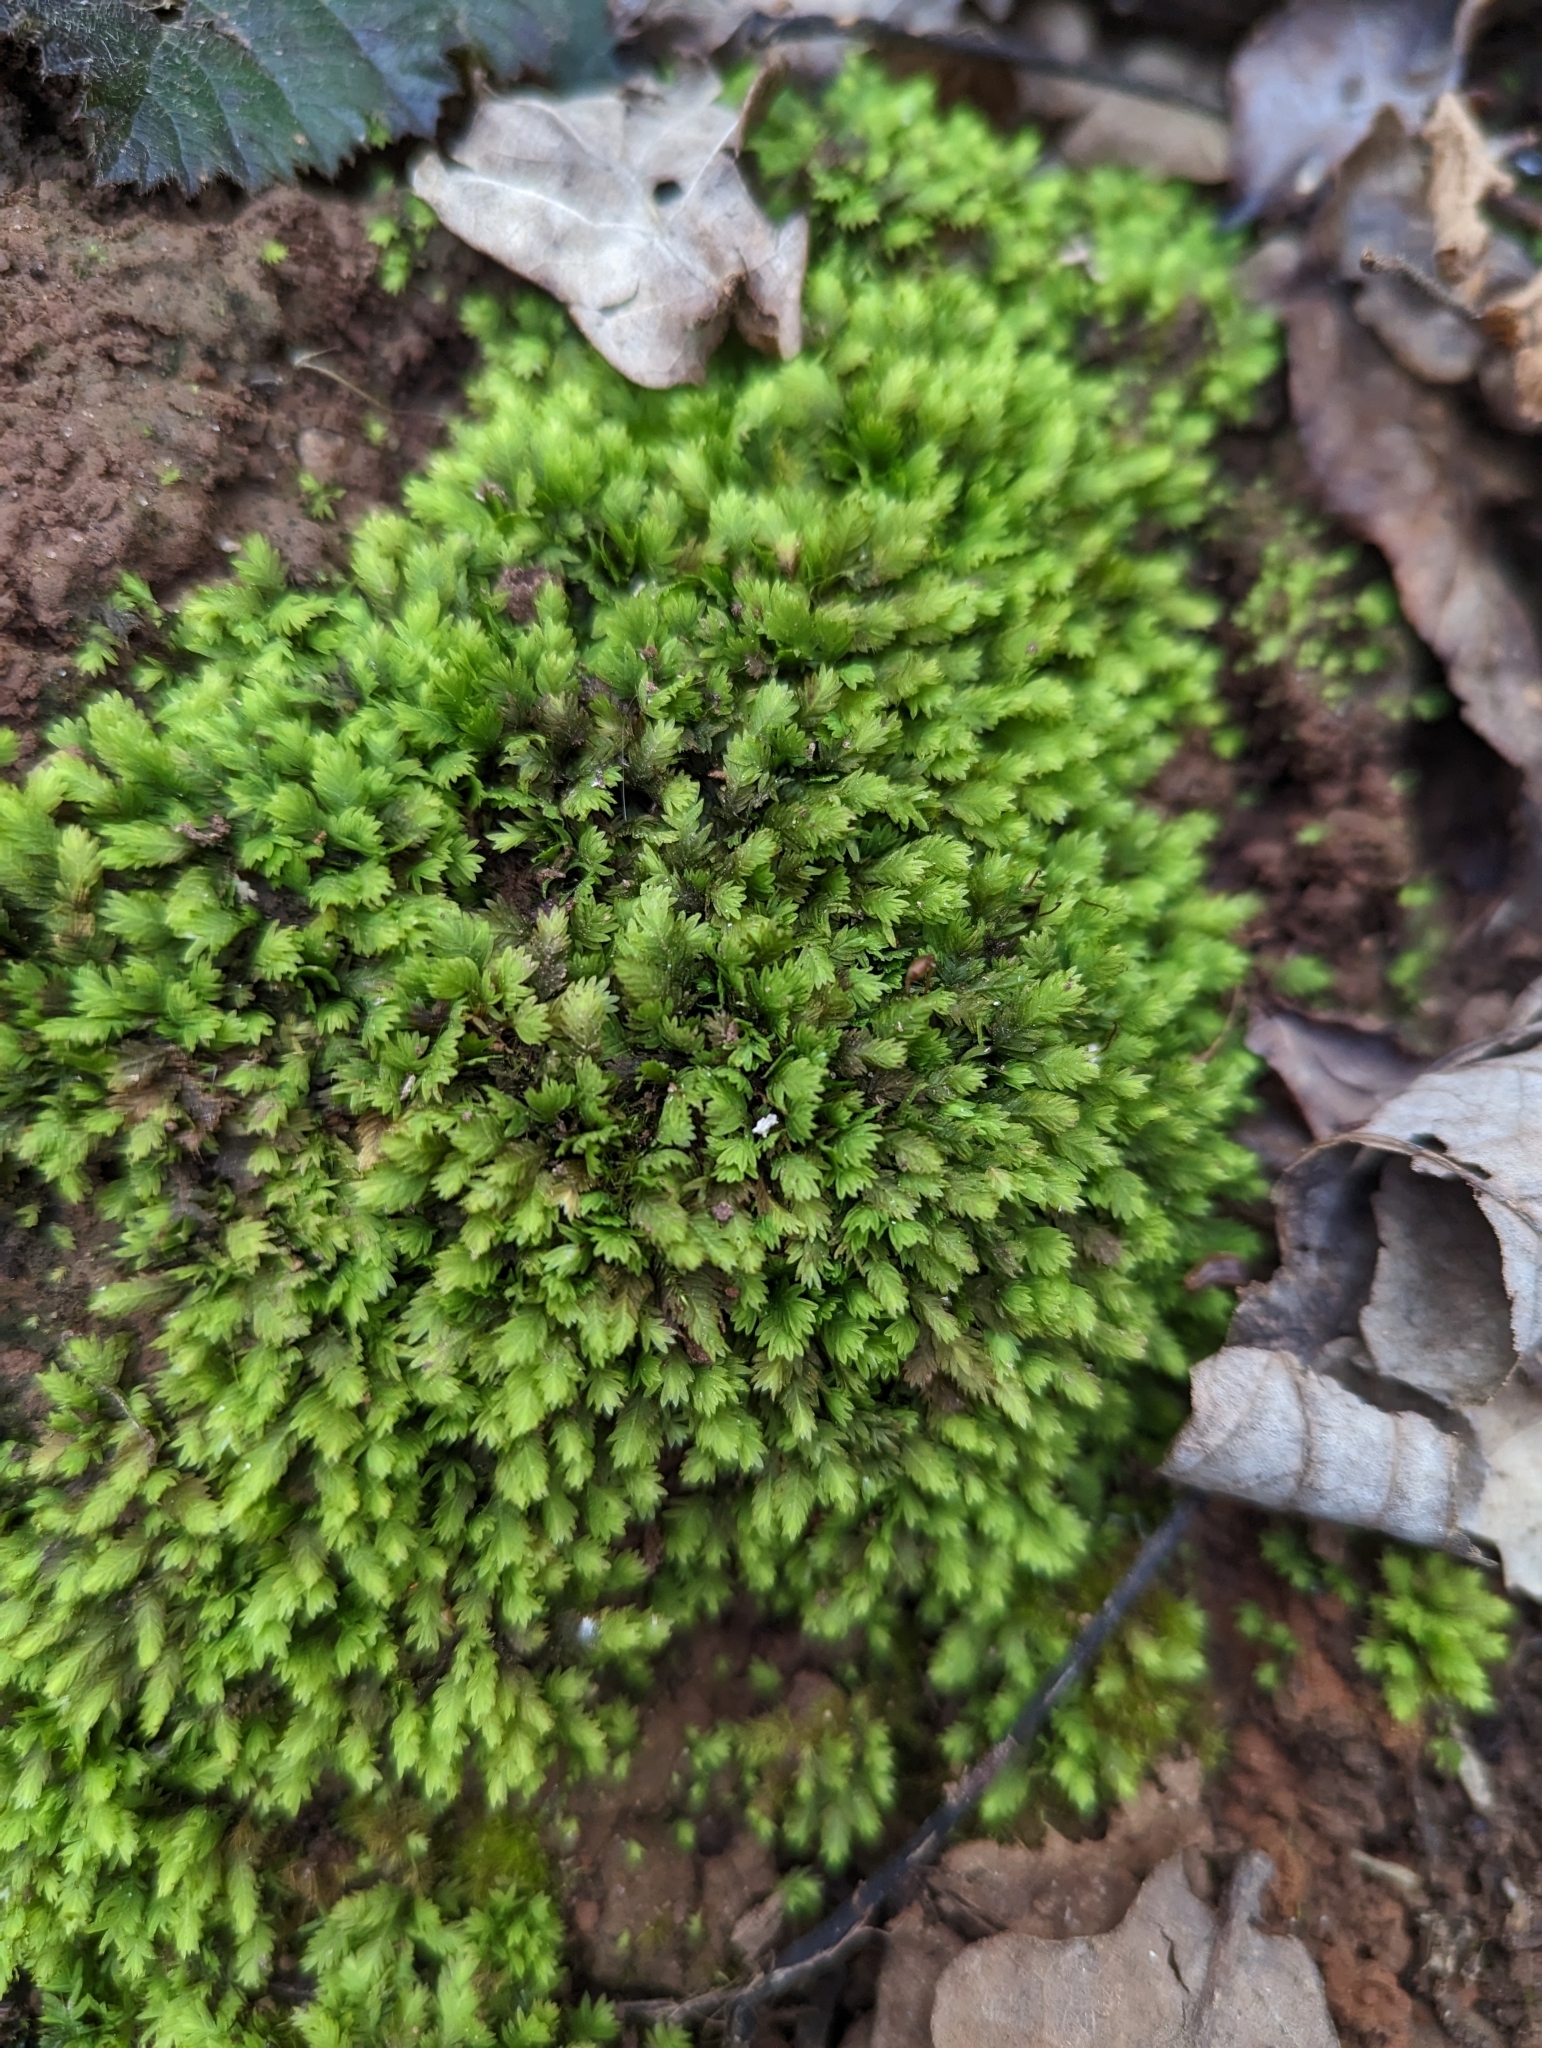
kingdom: Plantae
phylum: Bryophyta
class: Bryopsida
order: Dicranales
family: Fissidentaceae
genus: Fissidens
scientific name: Fissidens taxifolius
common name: Yew-leaved pocket moss
